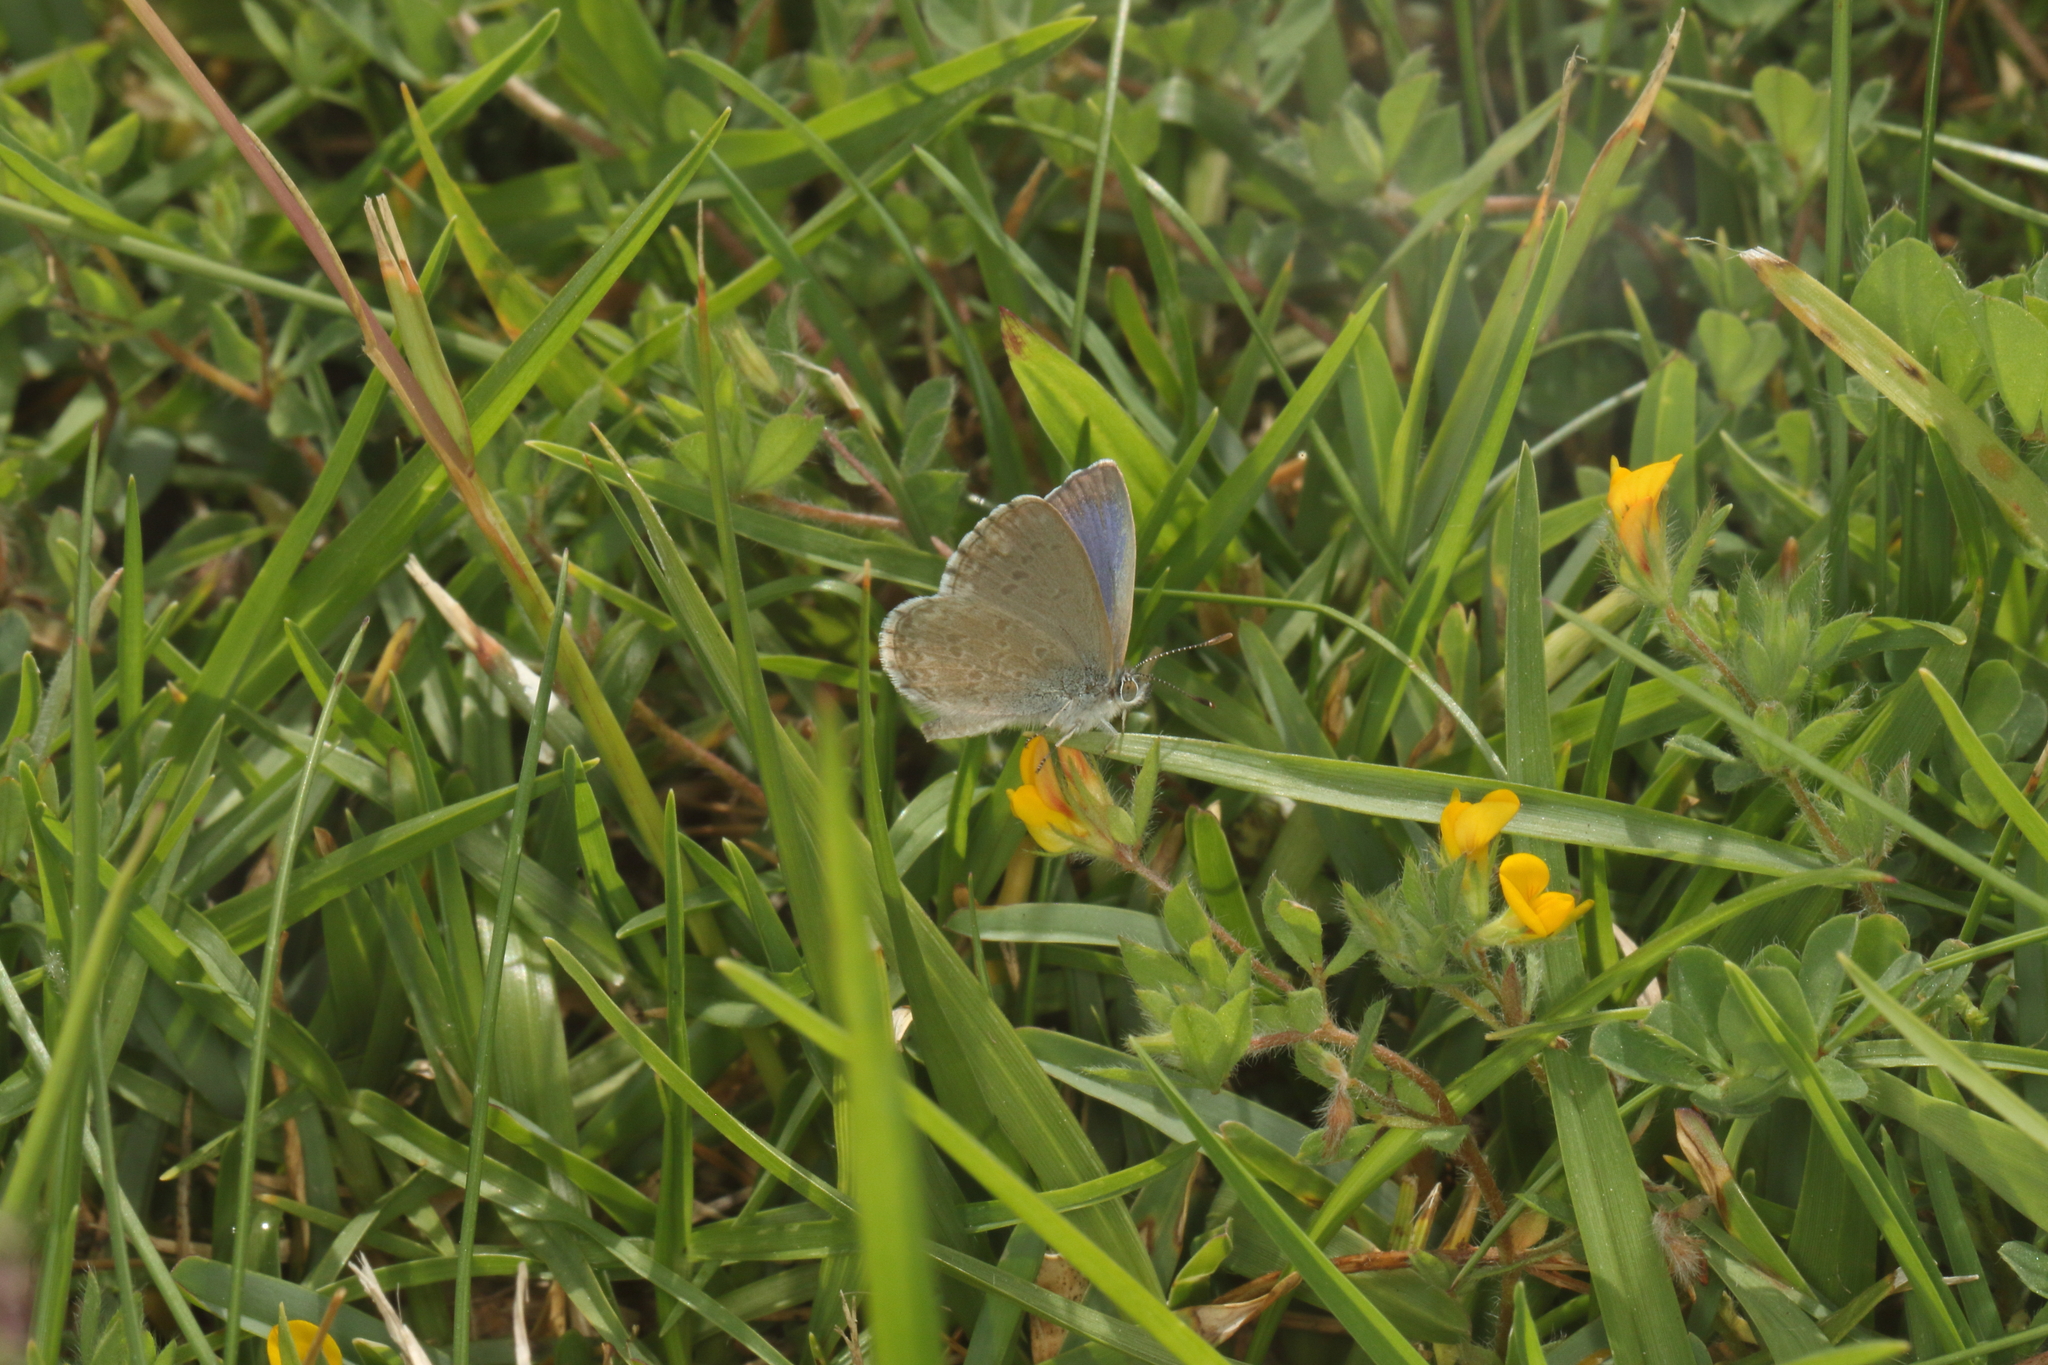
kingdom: Animalia
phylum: Arthropoda
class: Insecta
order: Lepidoptera
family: Lycaenidae
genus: Zizina
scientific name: Zizina otis
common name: Lesser grass blue
